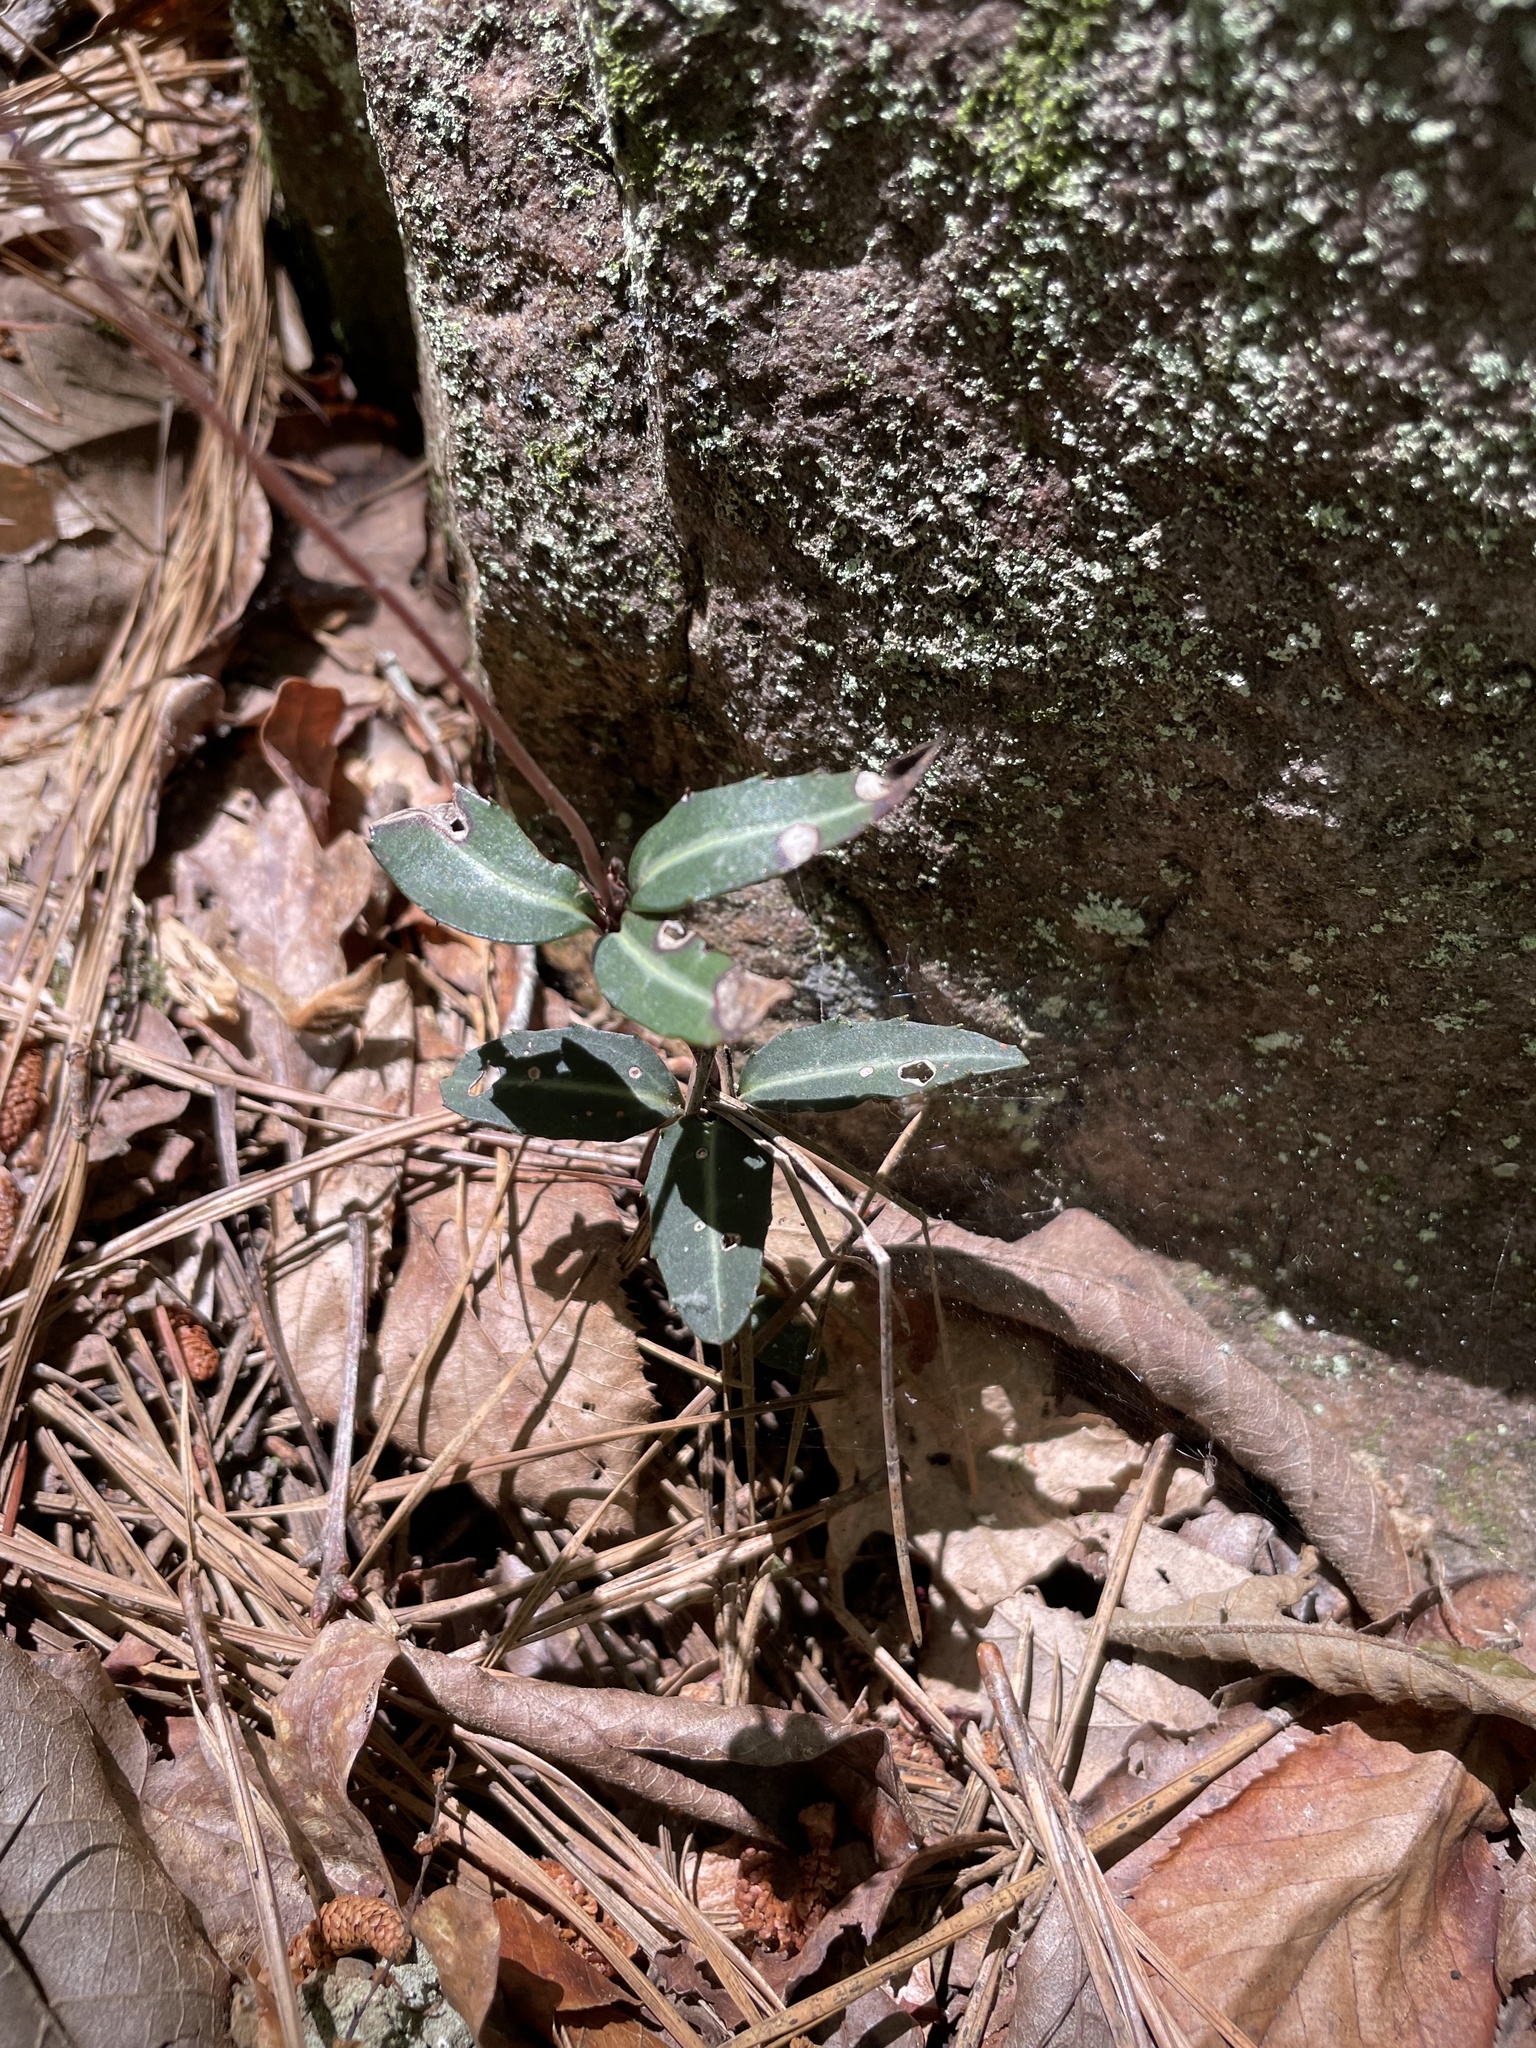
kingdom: Plantae
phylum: Tracheophyta
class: Magnoliopsida
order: Ericales
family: Ericaceae
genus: Chimaphila
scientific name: Chimaphila maculata
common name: Spotted pipsissewa
